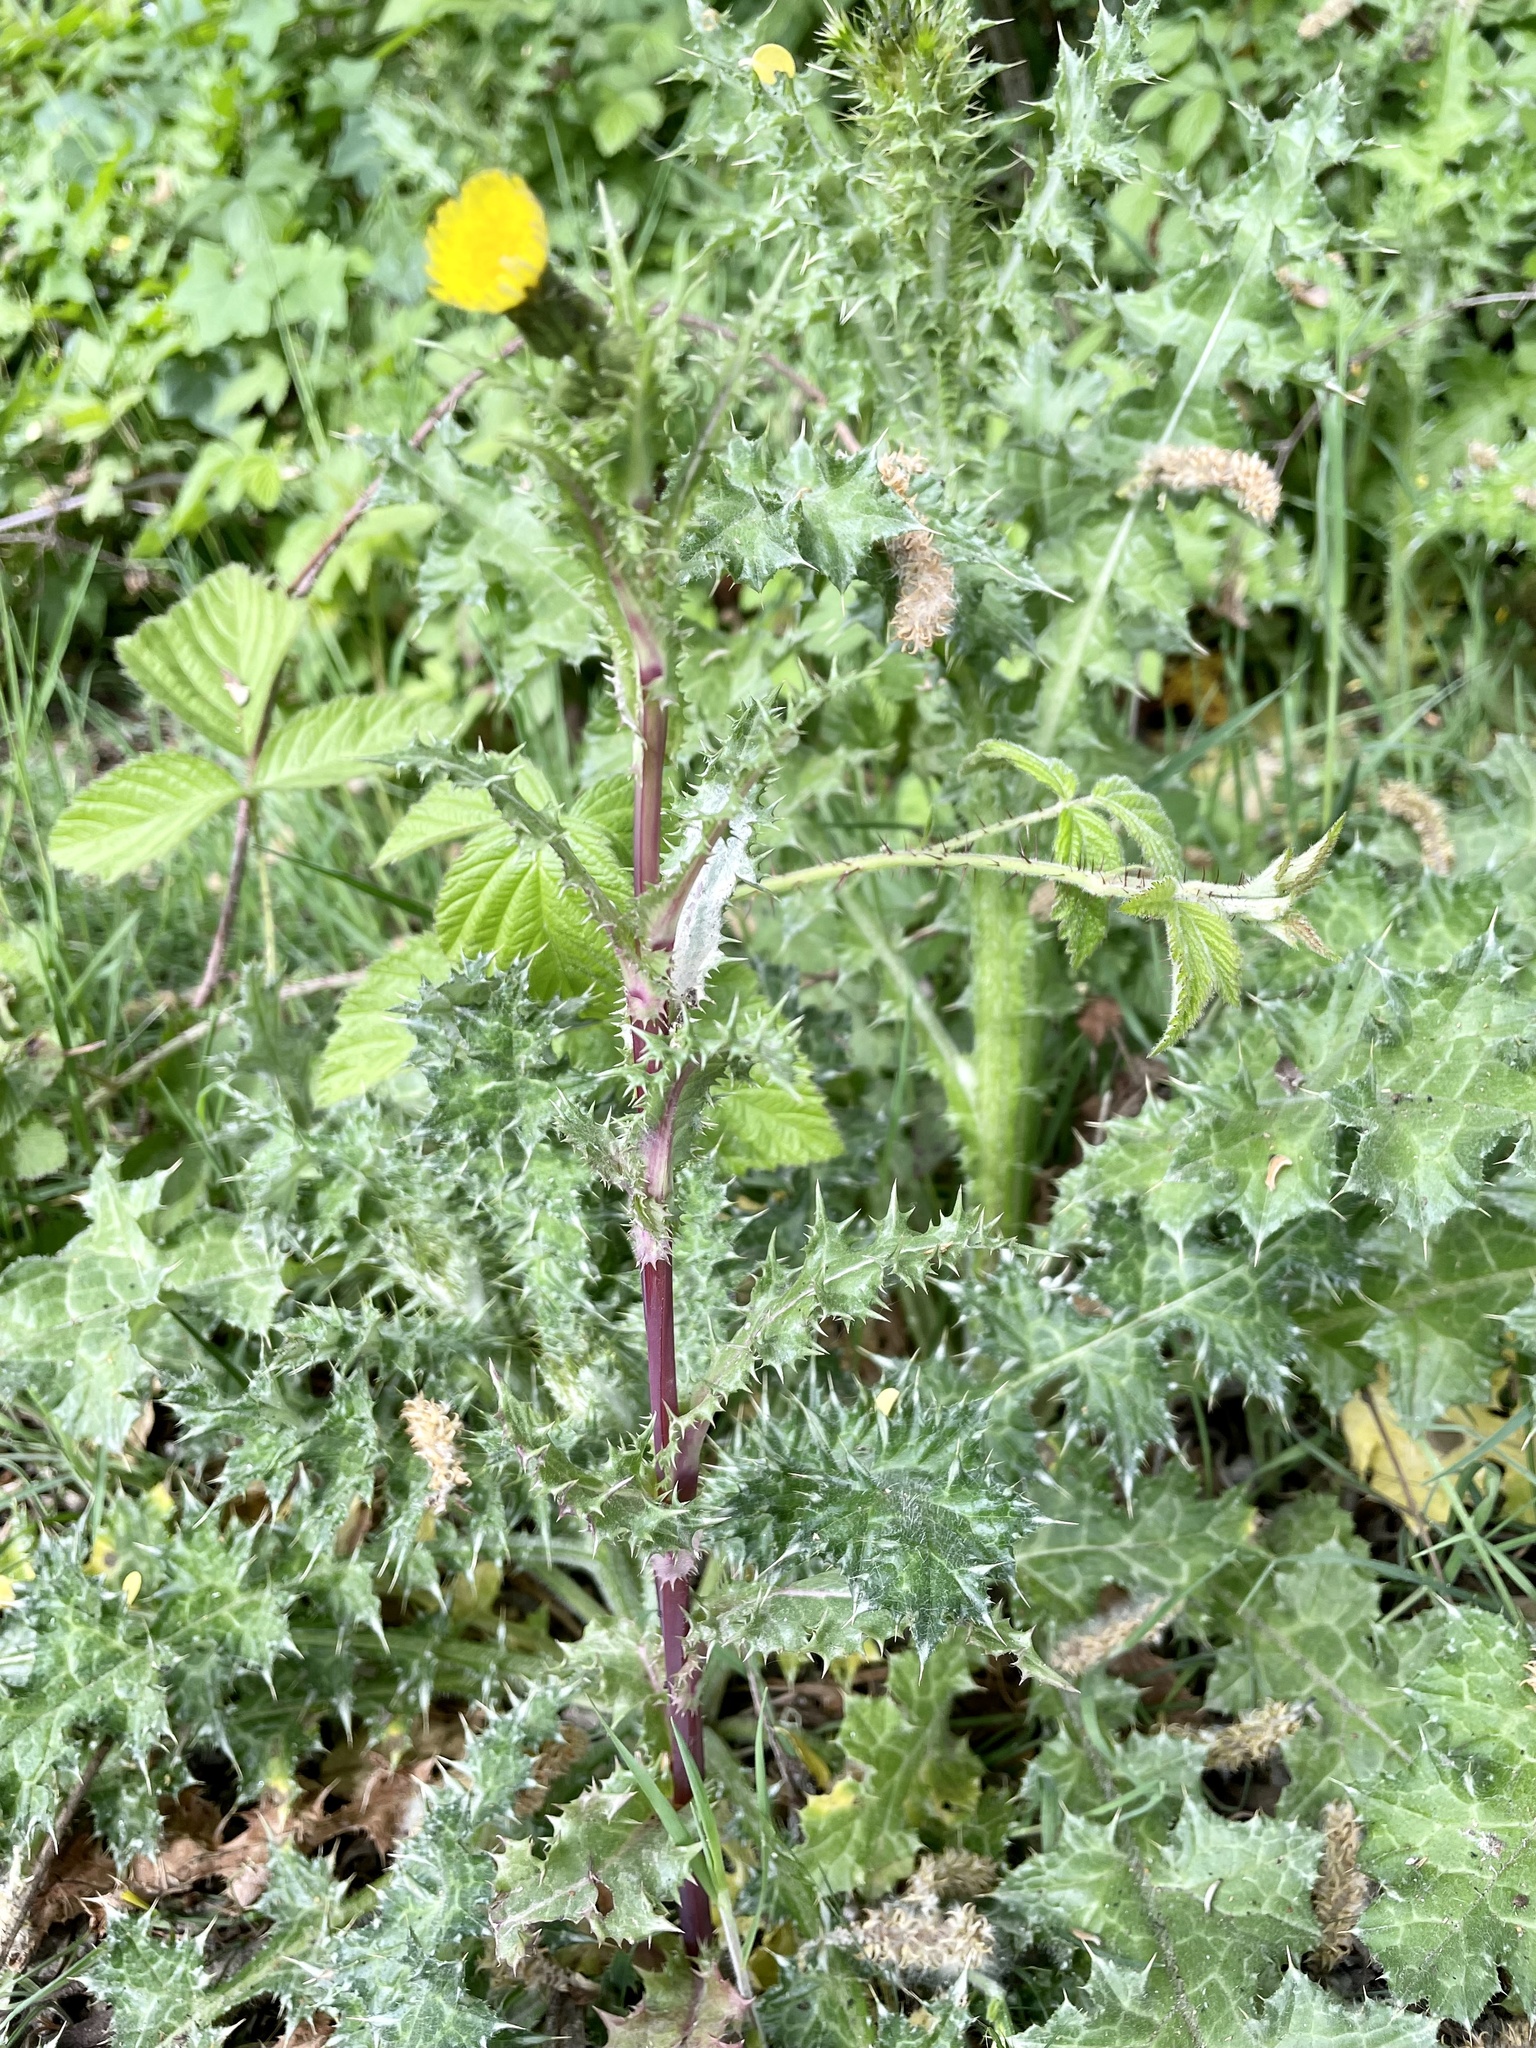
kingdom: Plantae
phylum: Tracheophyta
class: Magnoliopsida
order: Asterales
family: Asteraceae
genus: Sonchus
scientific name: Sonchus asper
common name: Prickly sow-thistle
